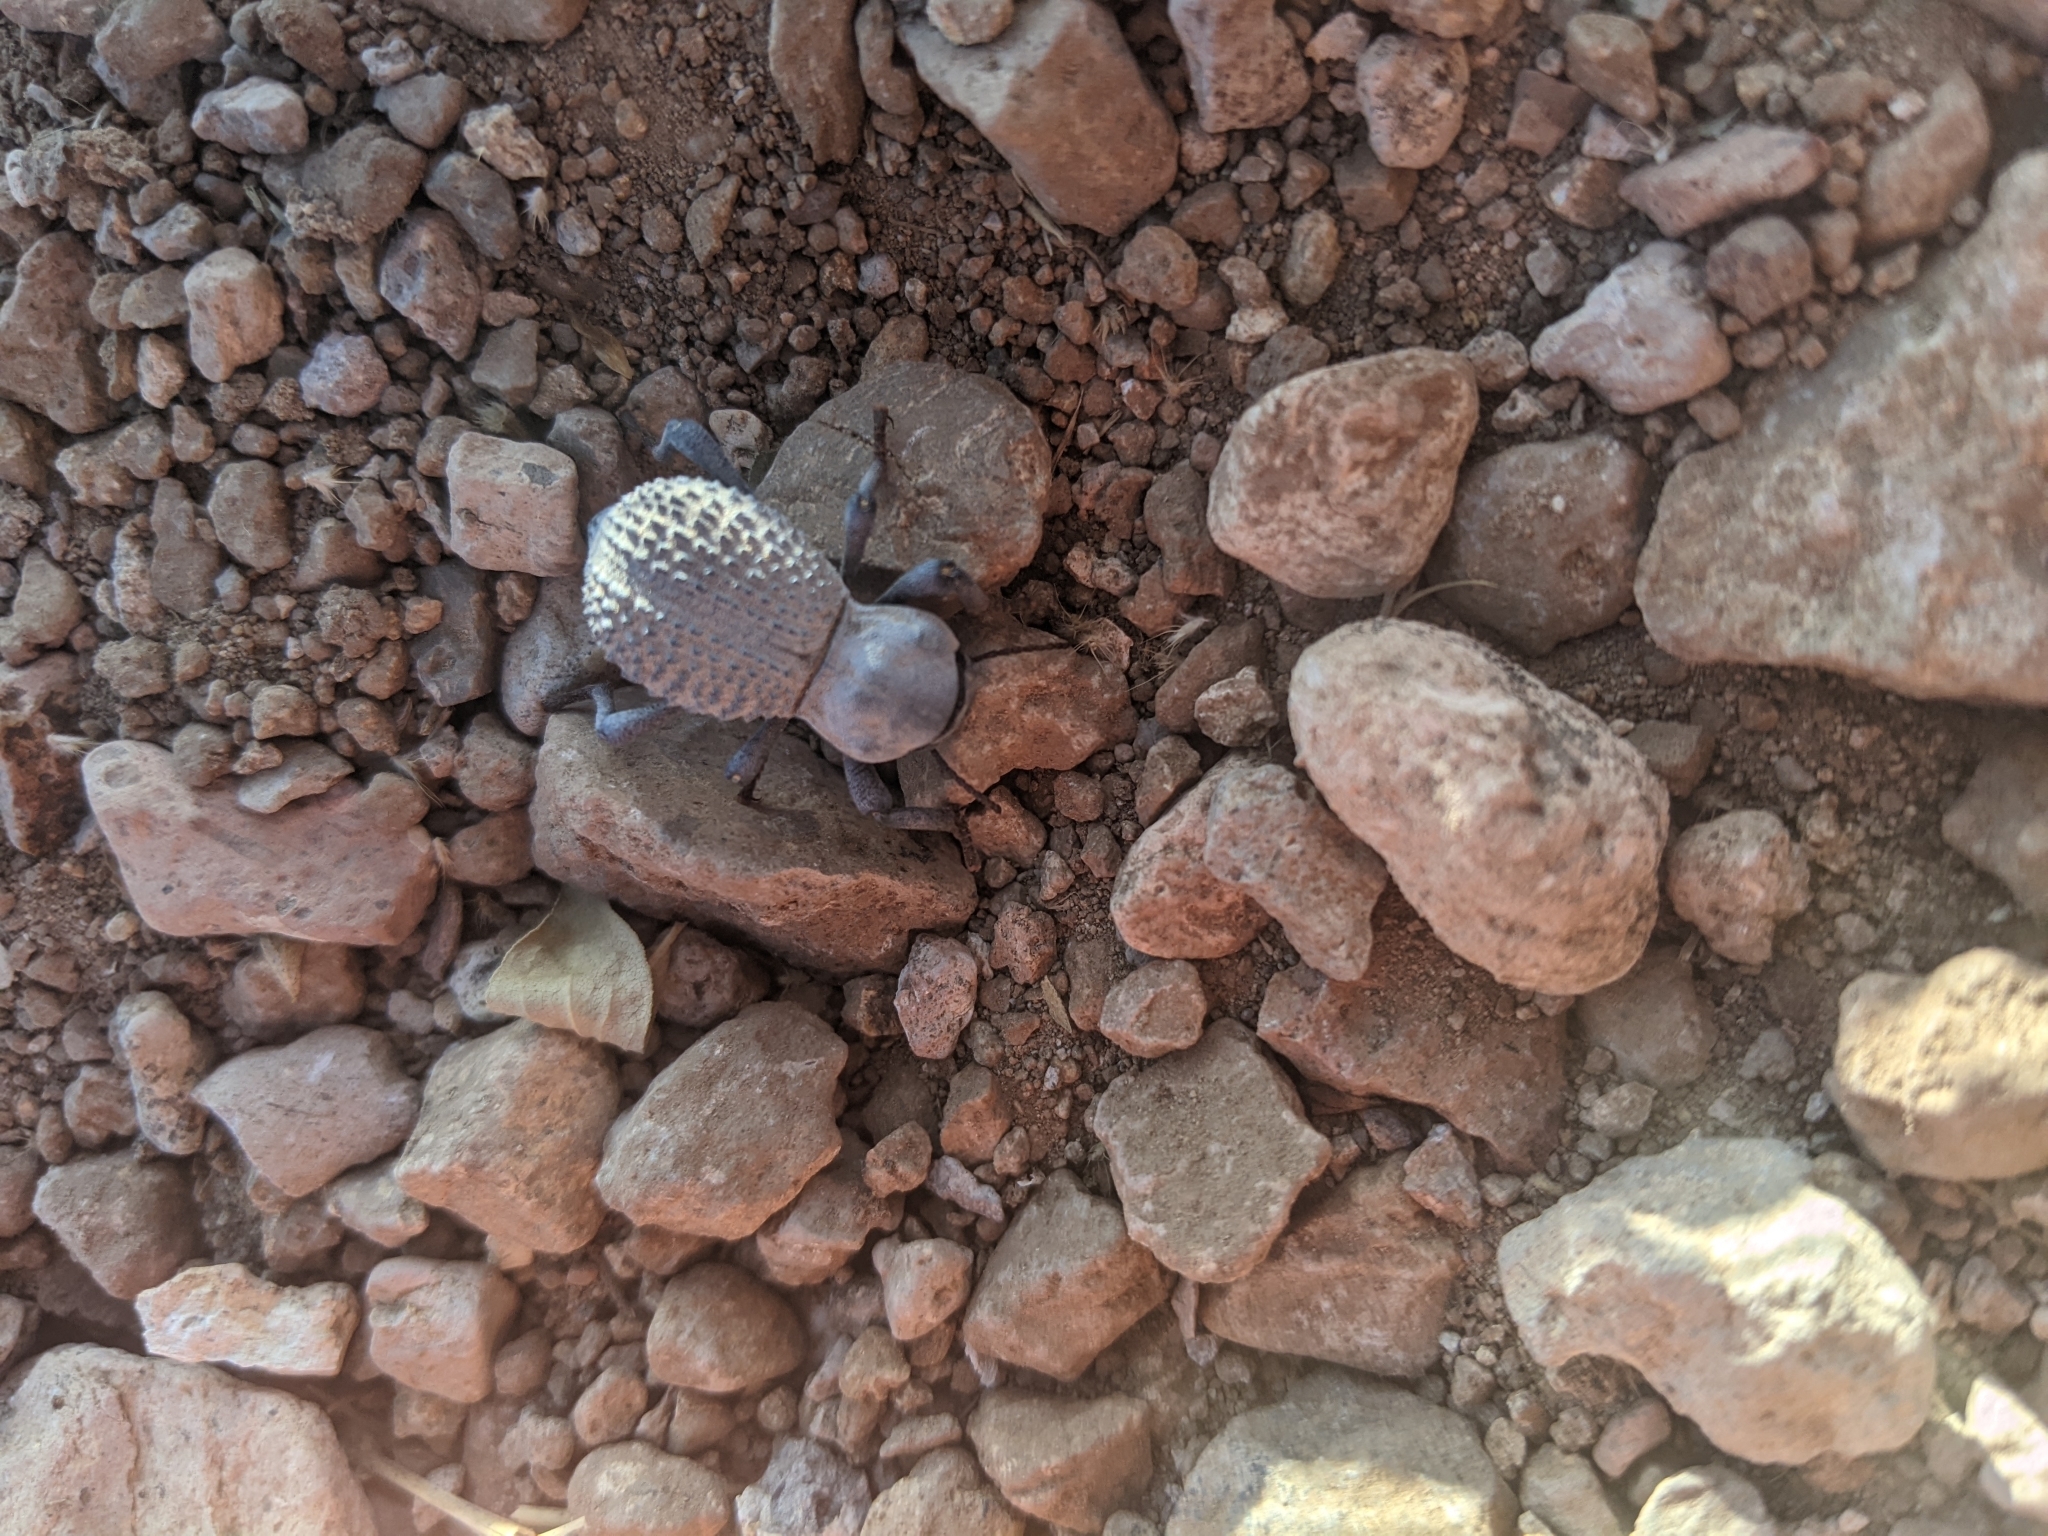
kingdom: Animalia
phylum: Arthropoda
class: Insecta
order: Coleoptera
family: Tenebrionidae
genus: Asbolus
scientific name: Asbolus verrucosus
